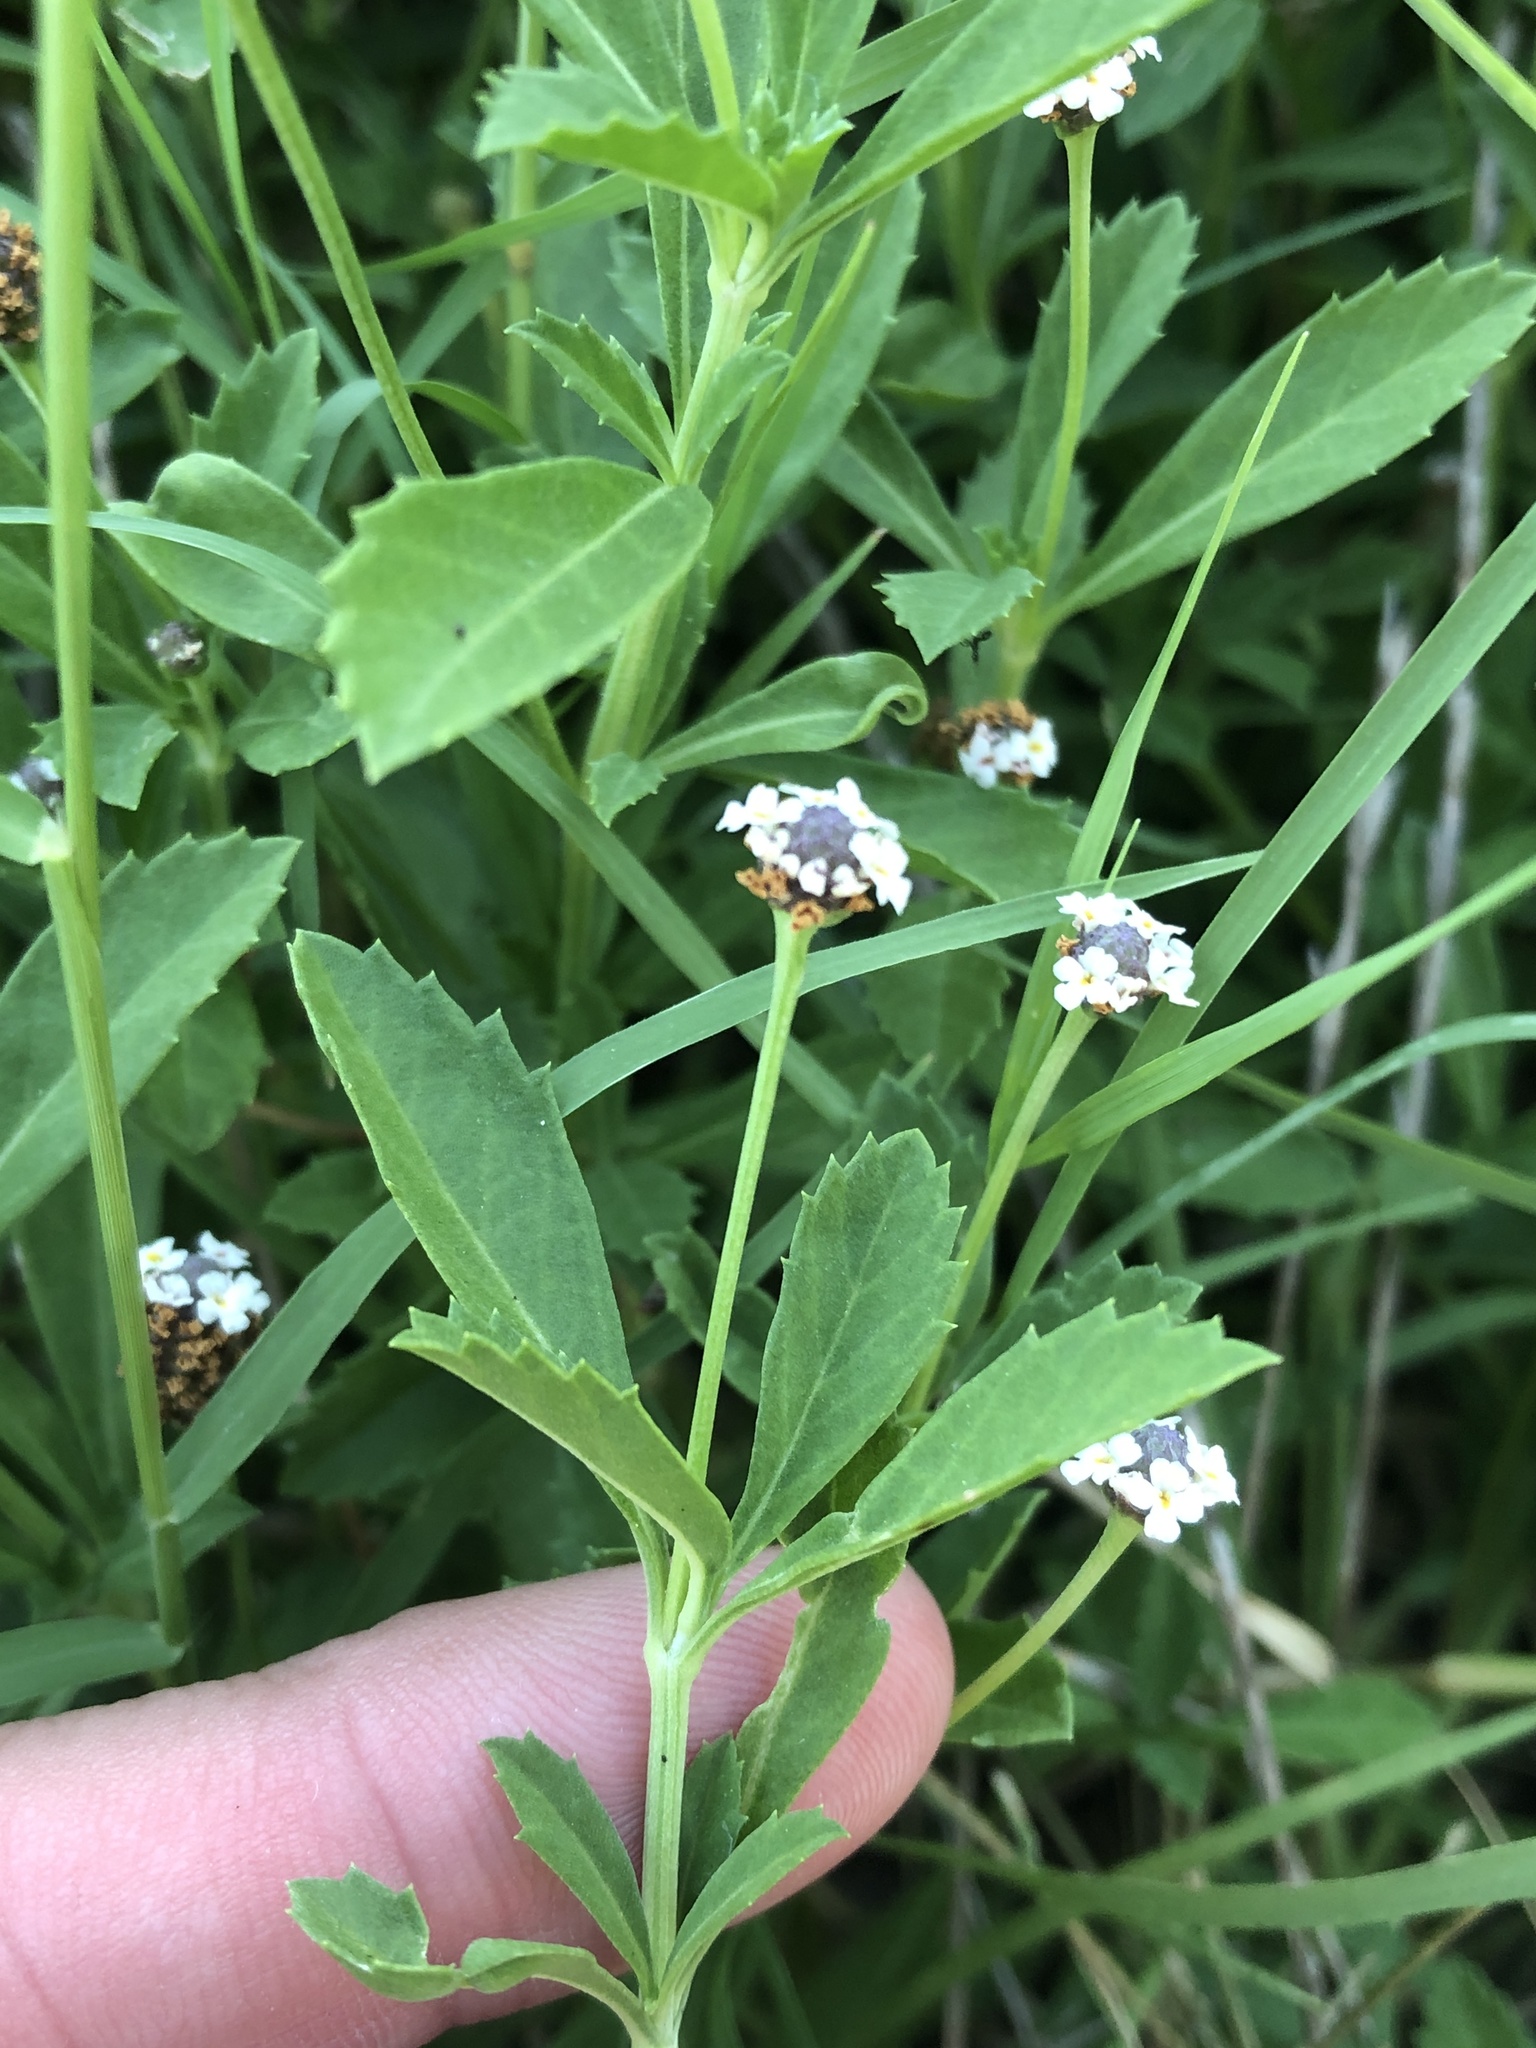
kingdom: Plantae
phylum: Tracheophyta
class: Magnoliopsida
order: Lamiales
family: Verbenaceae
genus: Phyla
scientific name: Phyla nodiflora
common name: Frogfruit
